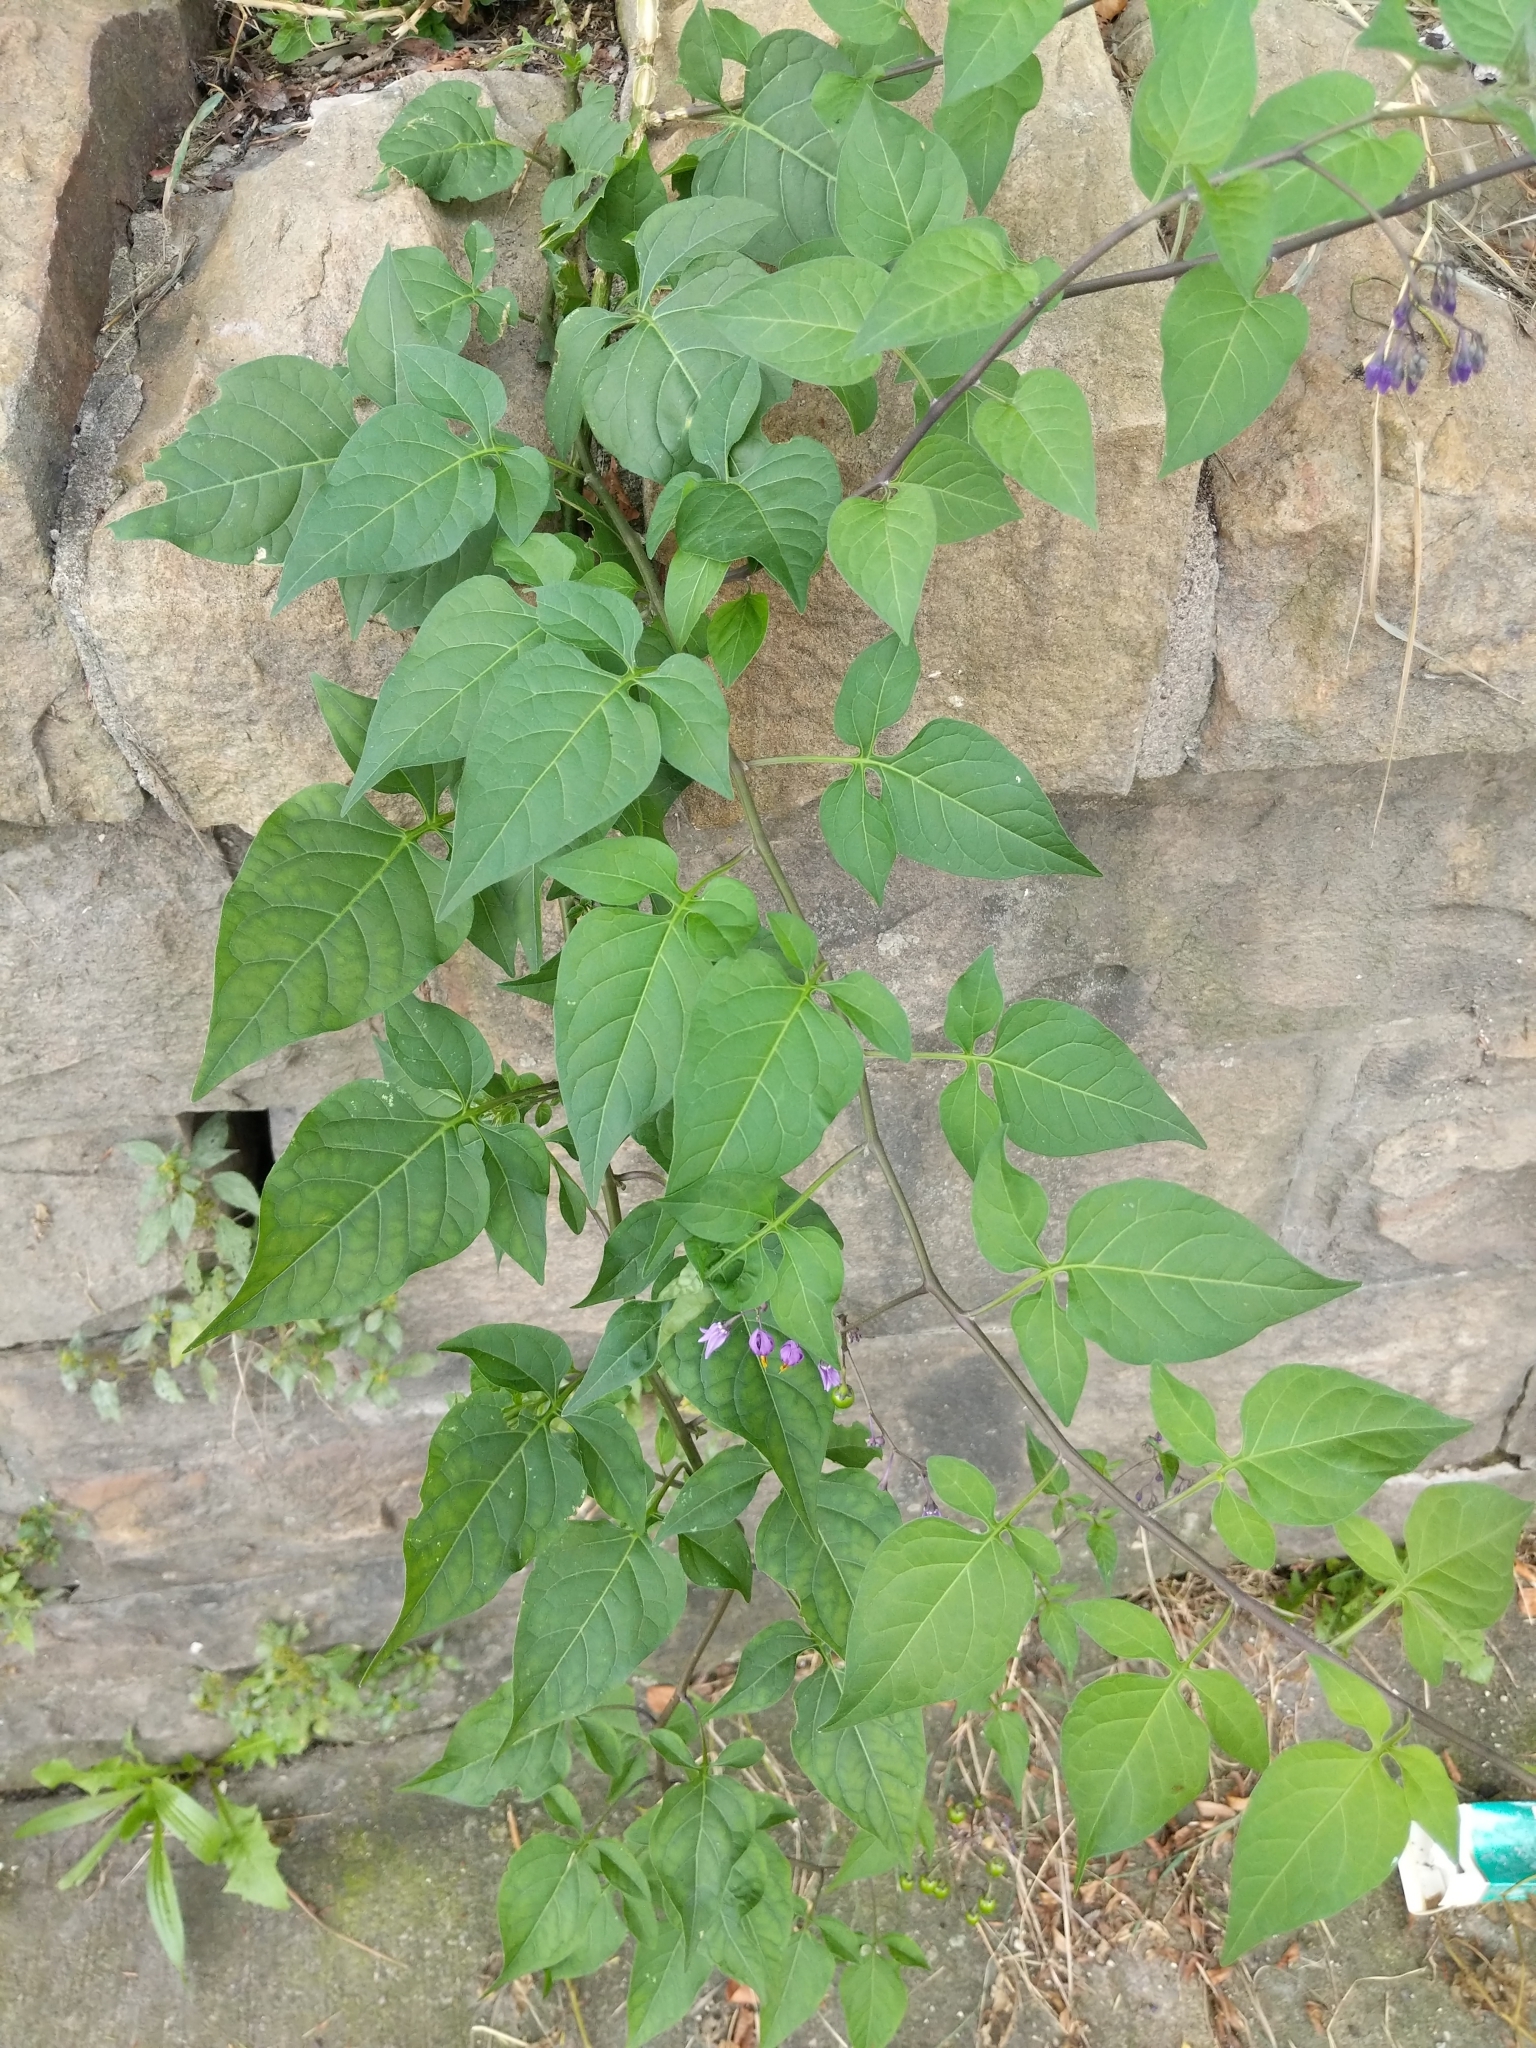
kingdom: Plantae
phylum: Tracheophyta
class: Magnoliopsida
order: Solanales
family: Solanaceae
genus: Solanum
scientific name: Solanum dulcamara
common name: Climbing nightshade
